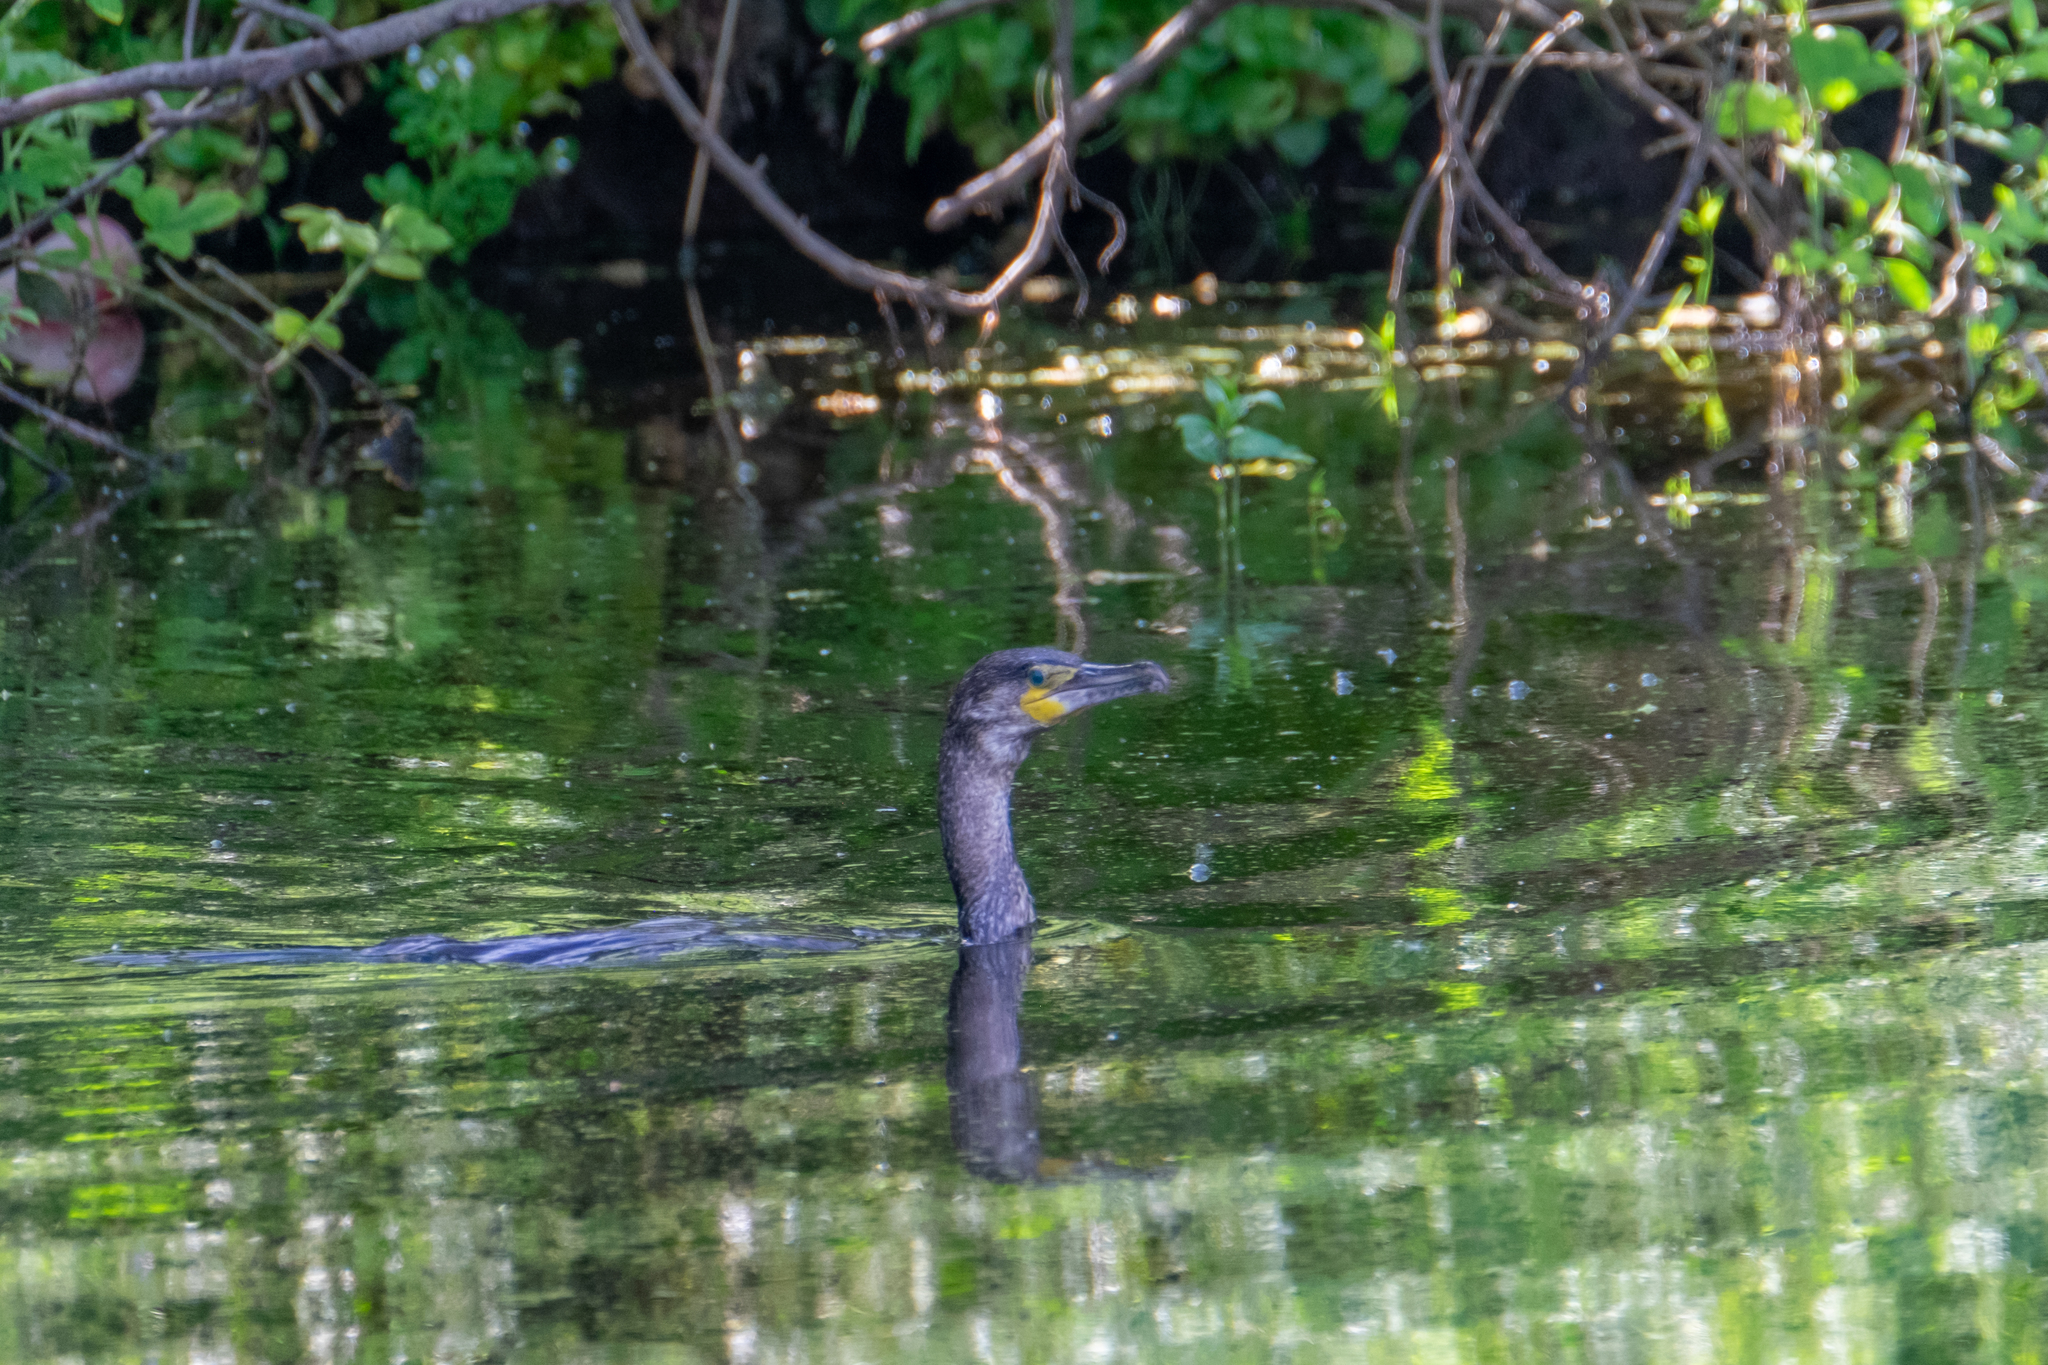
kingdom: Animalia
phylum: Chordata
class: Aves
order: Suliformes
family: Phalacrocoracidae
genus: Phalacrocorax
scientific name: Phalacrocorax carbo
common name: Great cormorant
